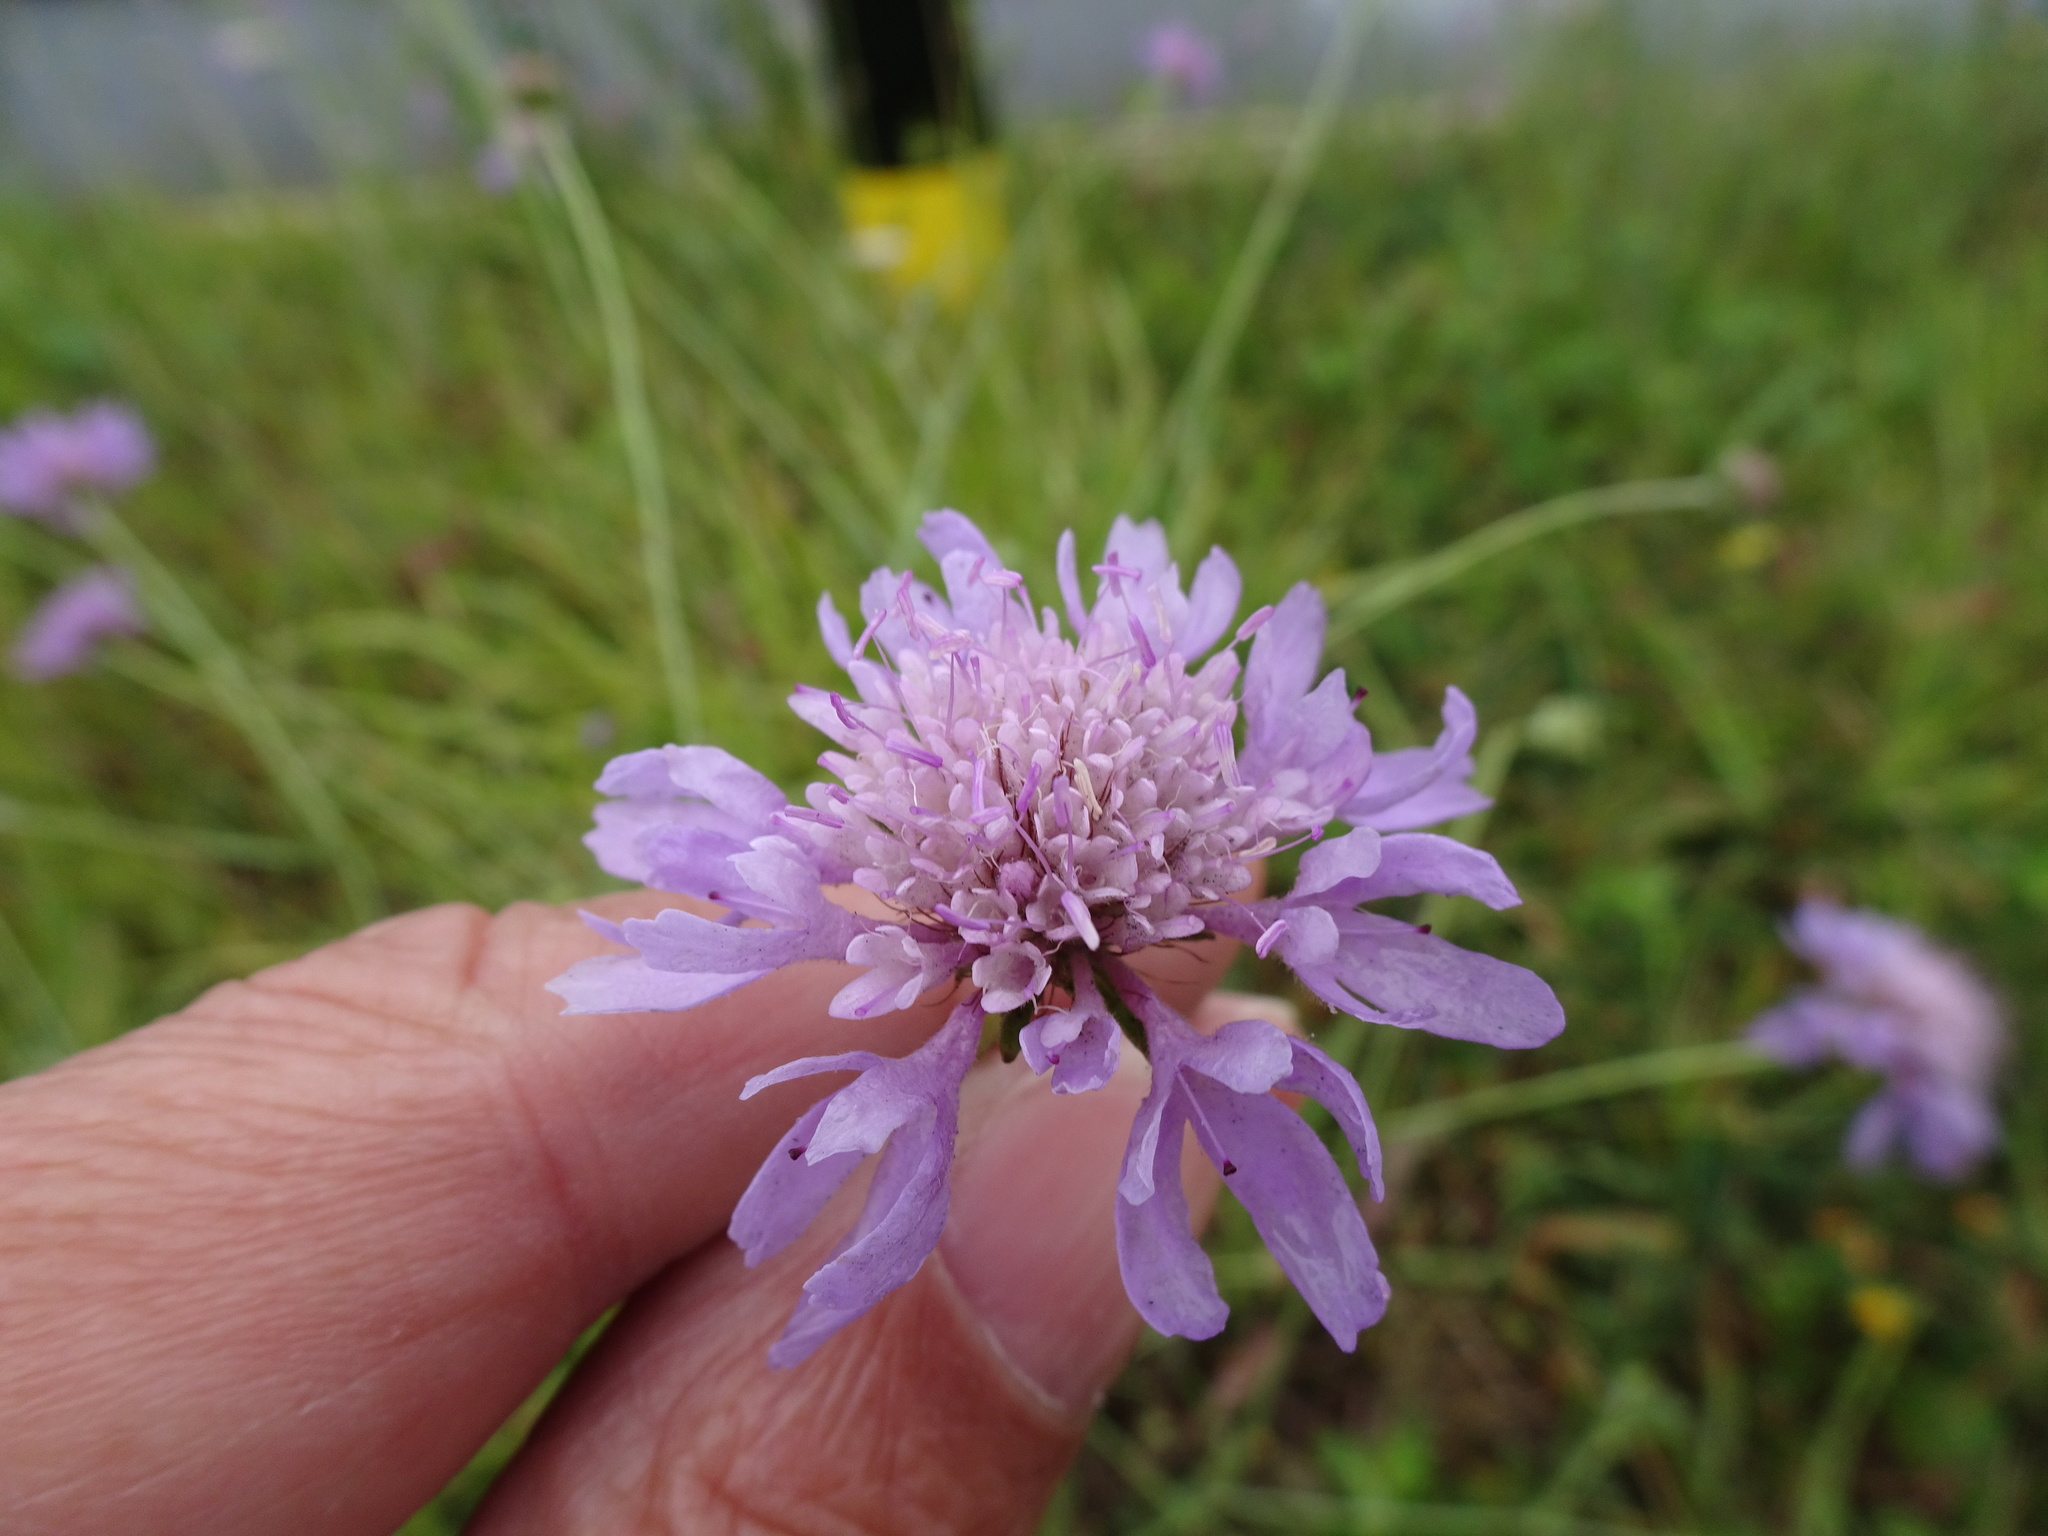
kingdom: Plantae
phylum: Tracheophyta
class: Magnoliopsida
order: Dipsacales
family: Caprifoliaceae
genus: Scabiosa
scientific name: Scabiosa columbaria
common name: Small scabious
